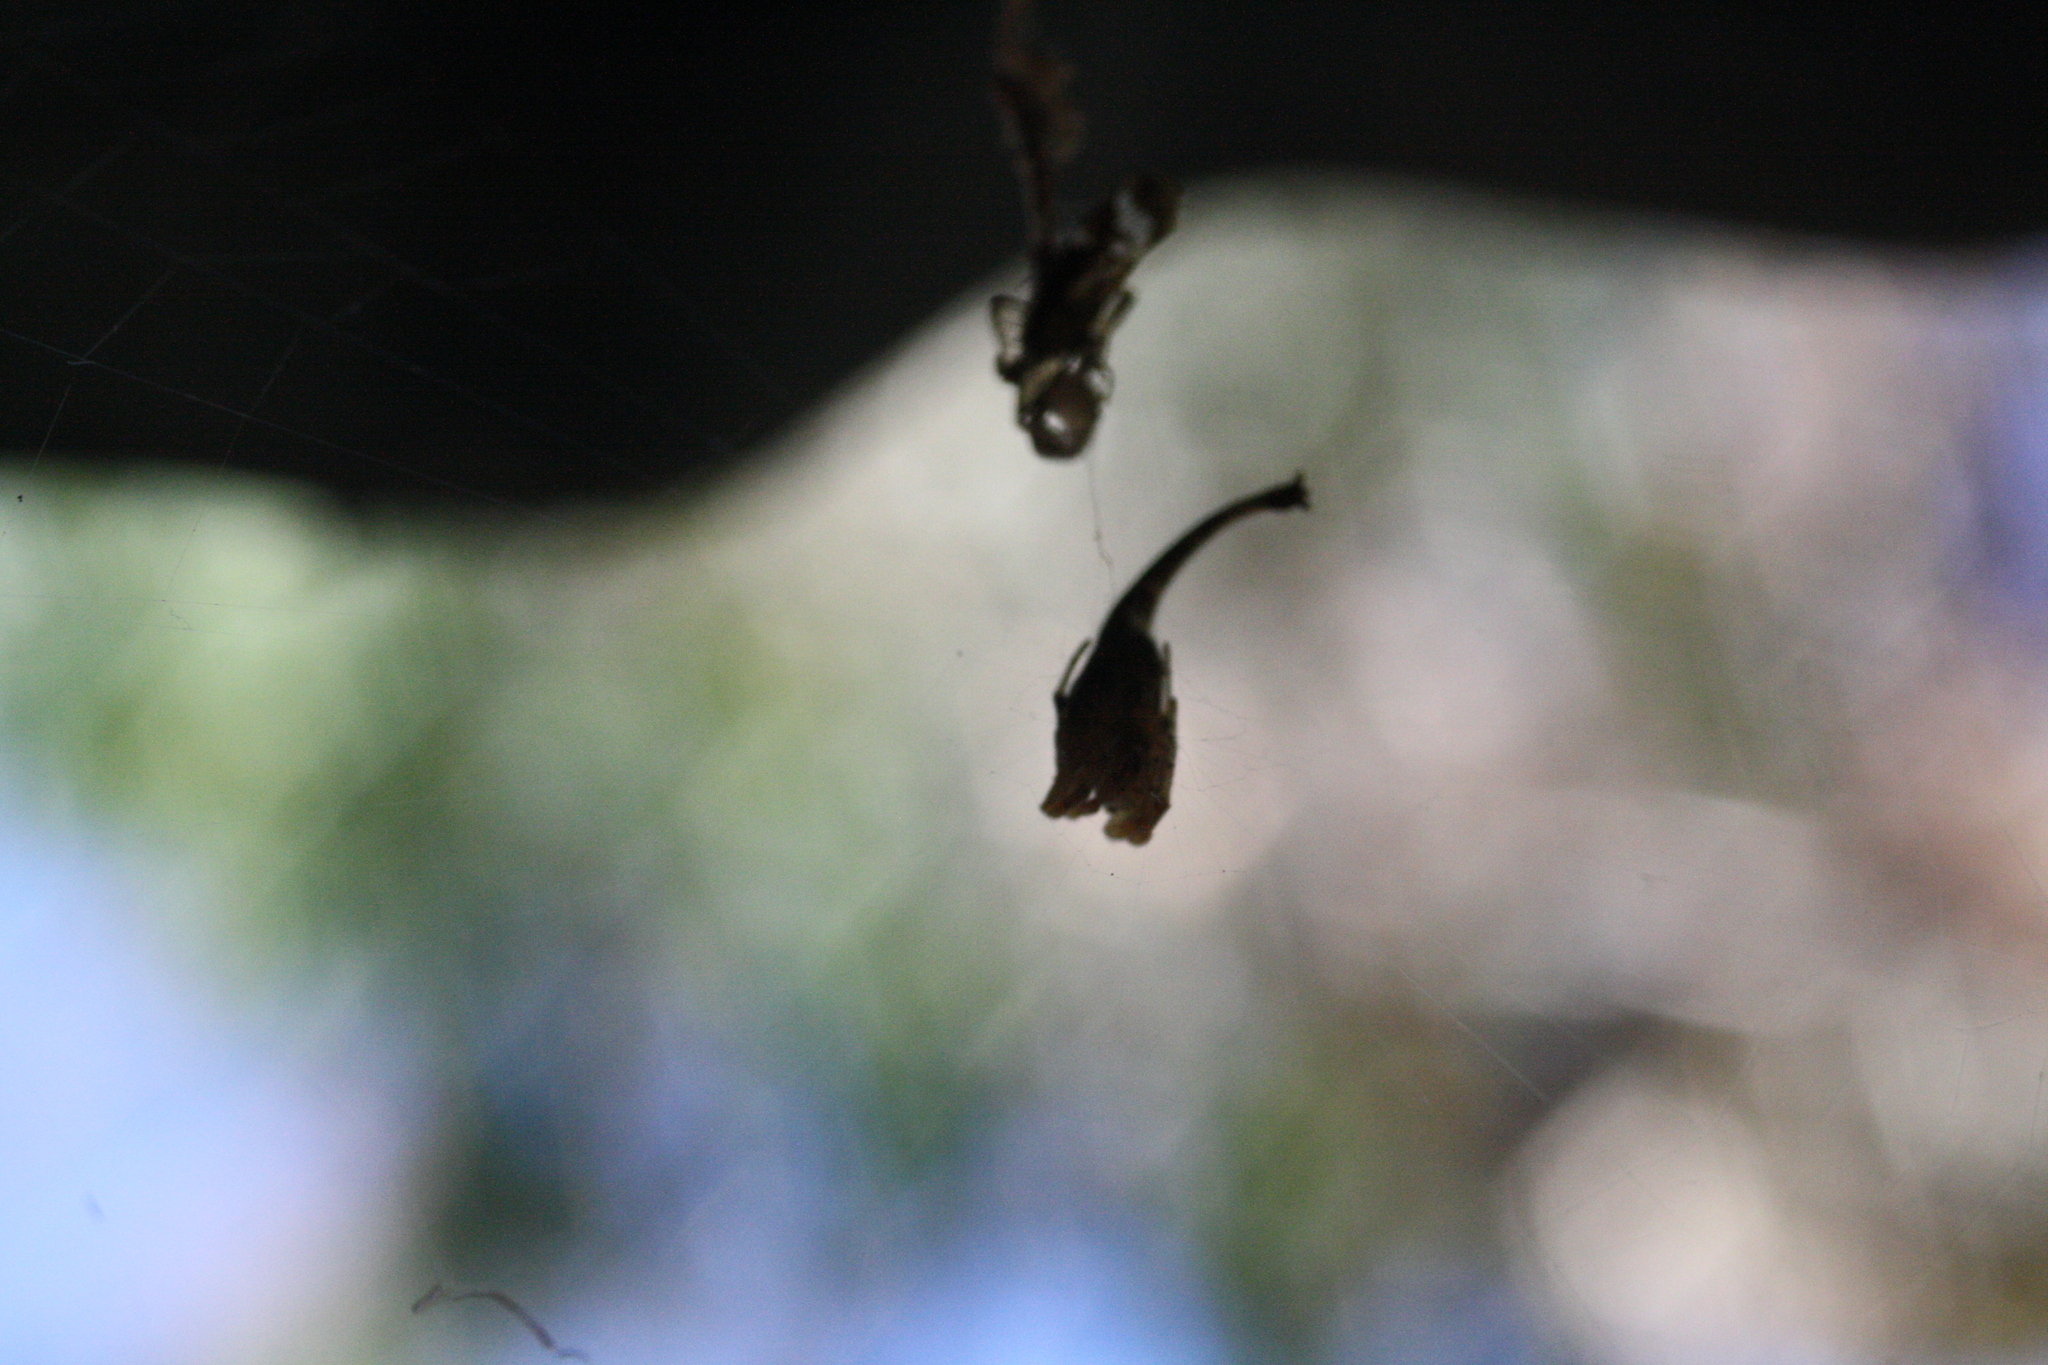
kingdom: Animalia
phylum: Arthropoda
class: Arachnida
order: Araneae
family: Araneidae
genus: Arachnura
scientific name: Arachnura higginsi
